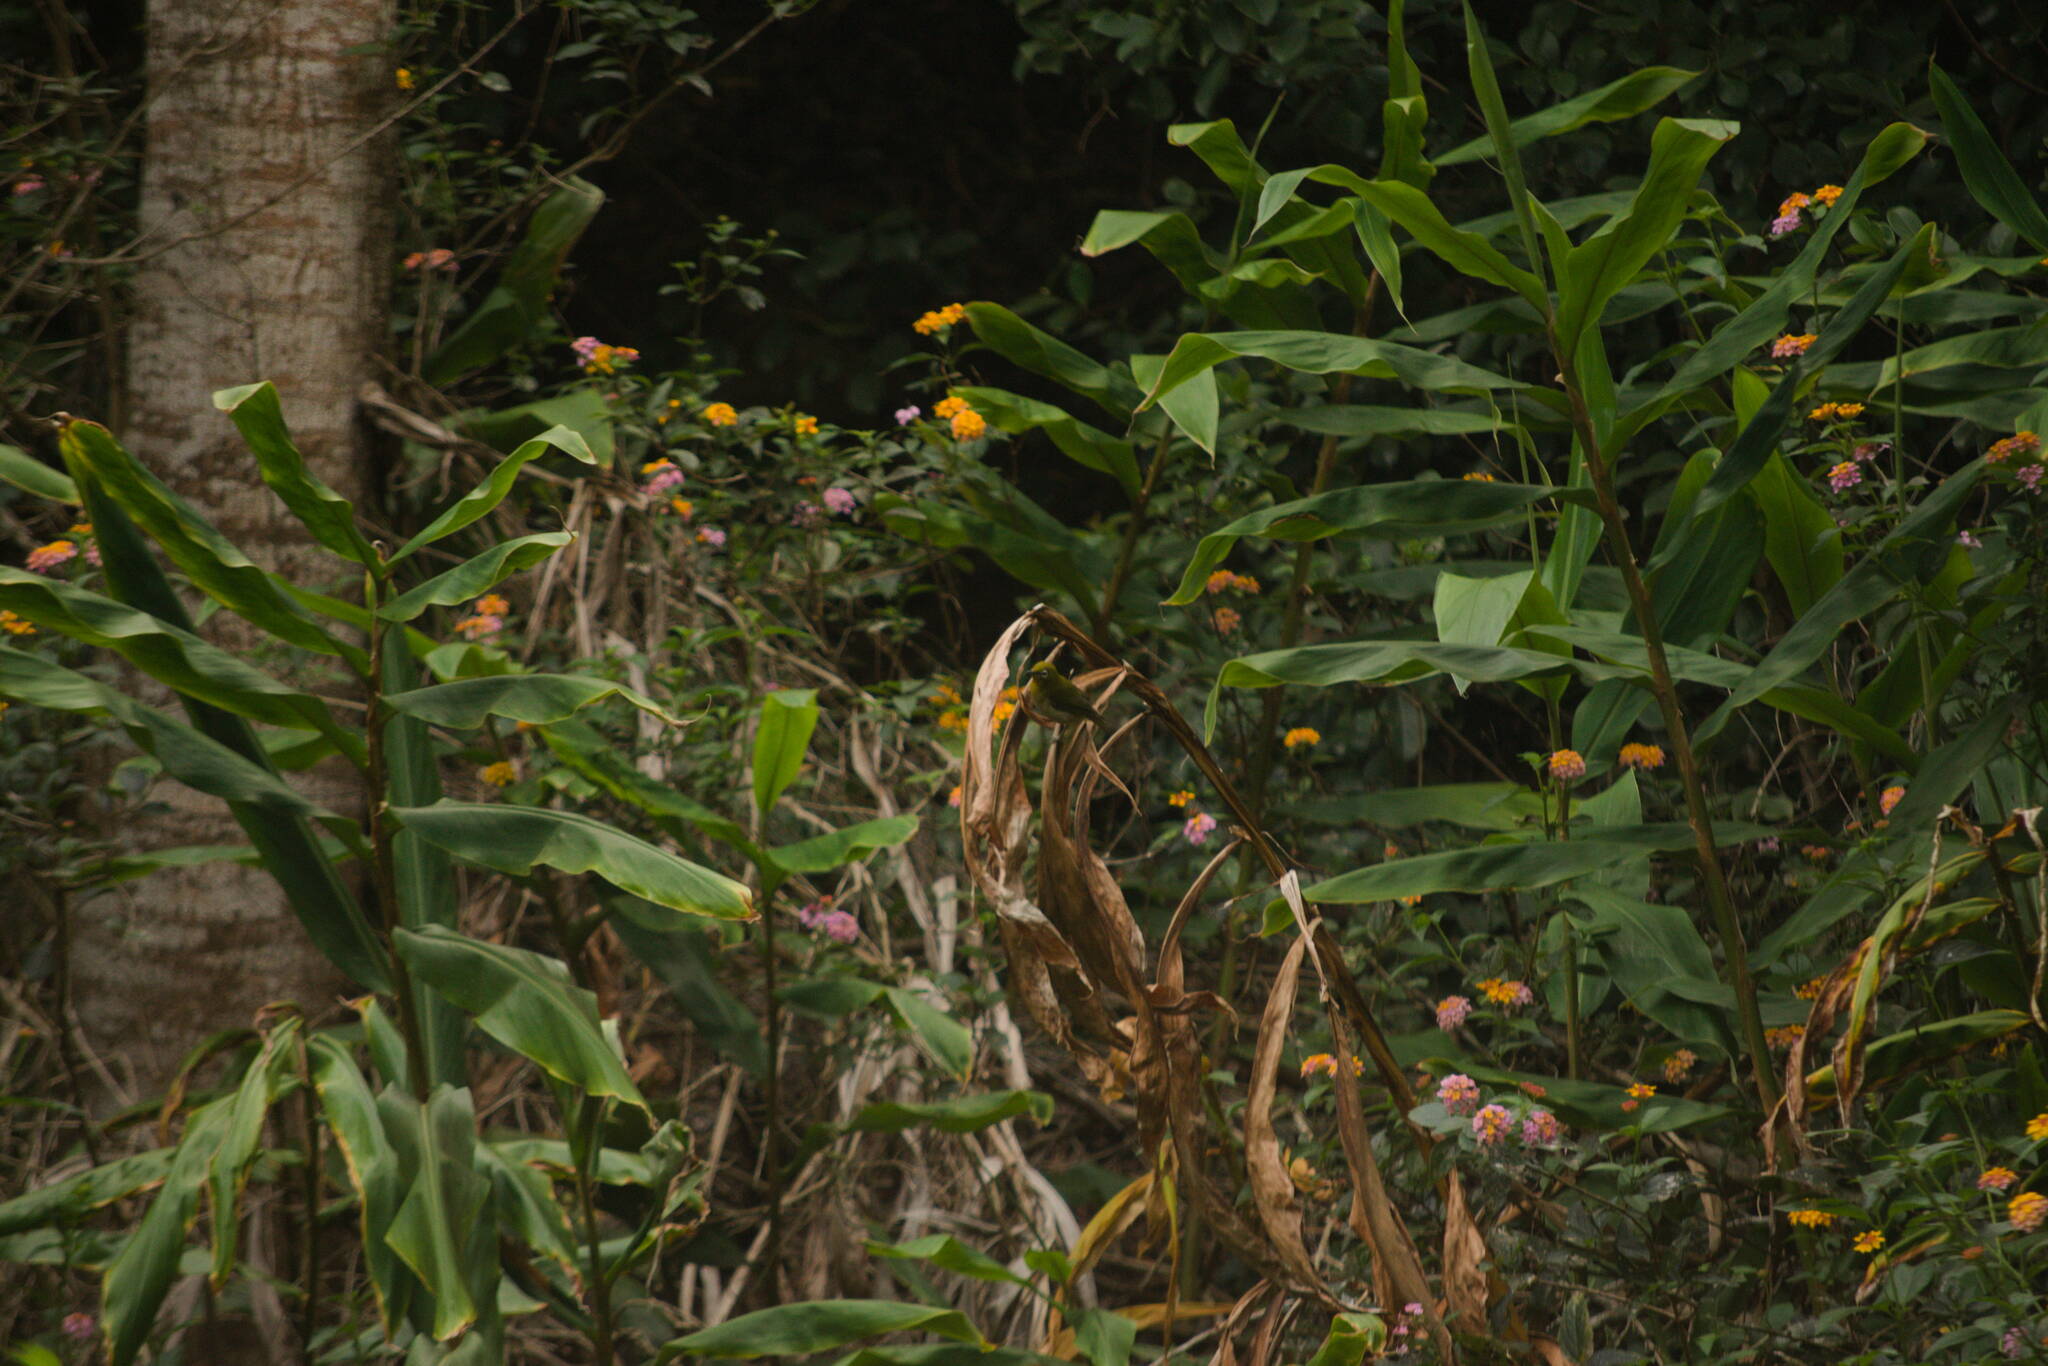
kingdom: Animalia
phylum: Chordata
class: Aves
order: Passeriformes
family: Zosteropidae
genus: Zosterops
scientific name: Zosterops japonicus
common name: Japanese white-eye
